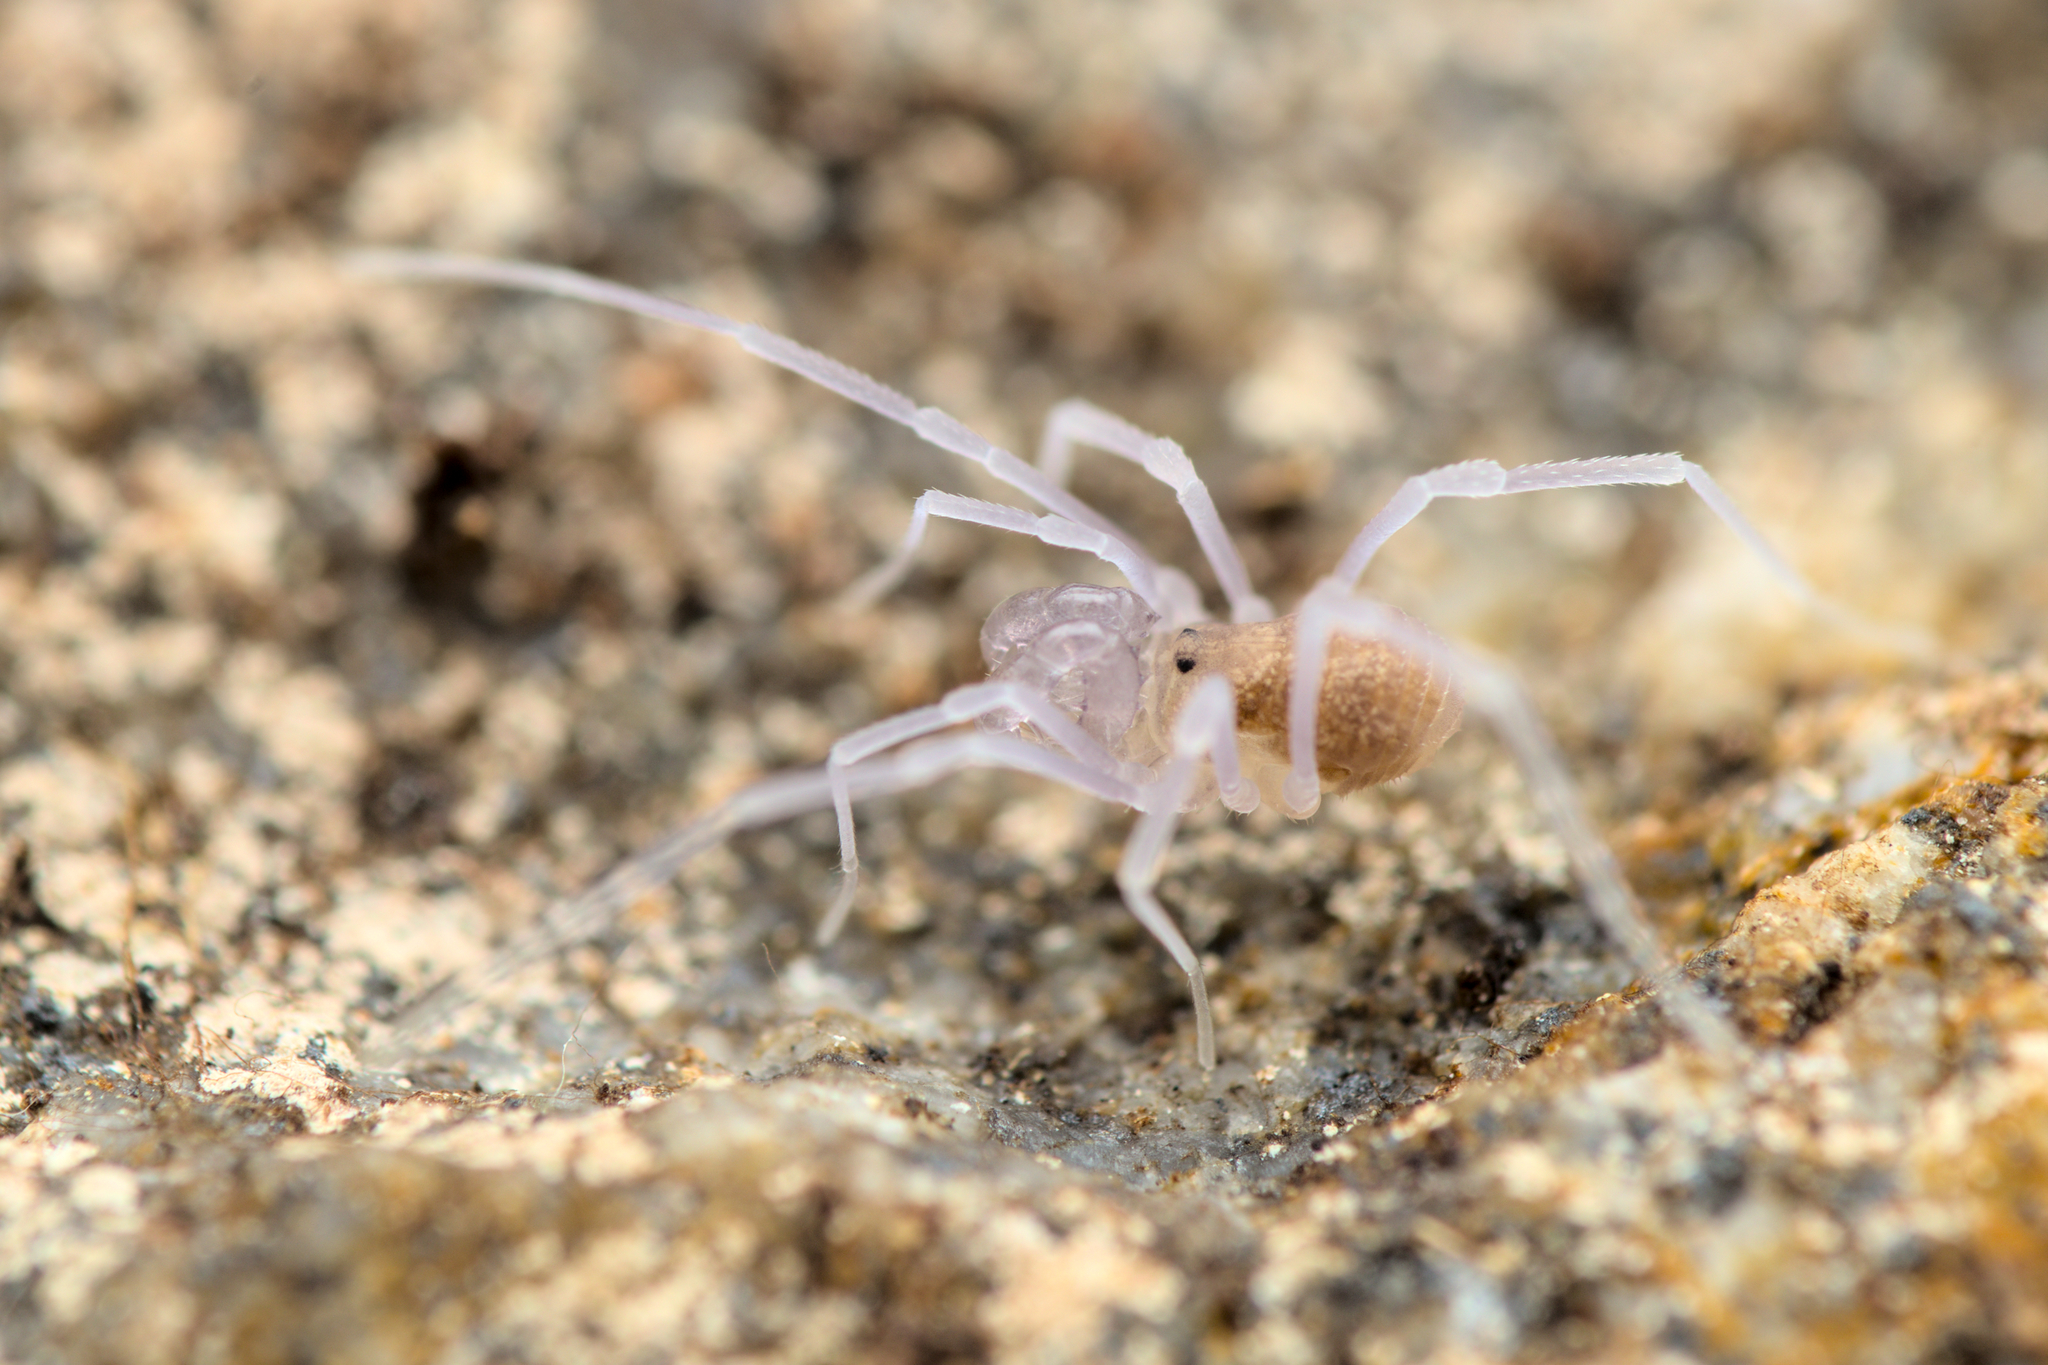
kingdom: Animalia
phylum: Arthropoda
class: Arachnida
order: Opiliones
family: Cladonychiidae
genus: Holoscotolemon
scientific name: Holoscotolemon querilhaci
